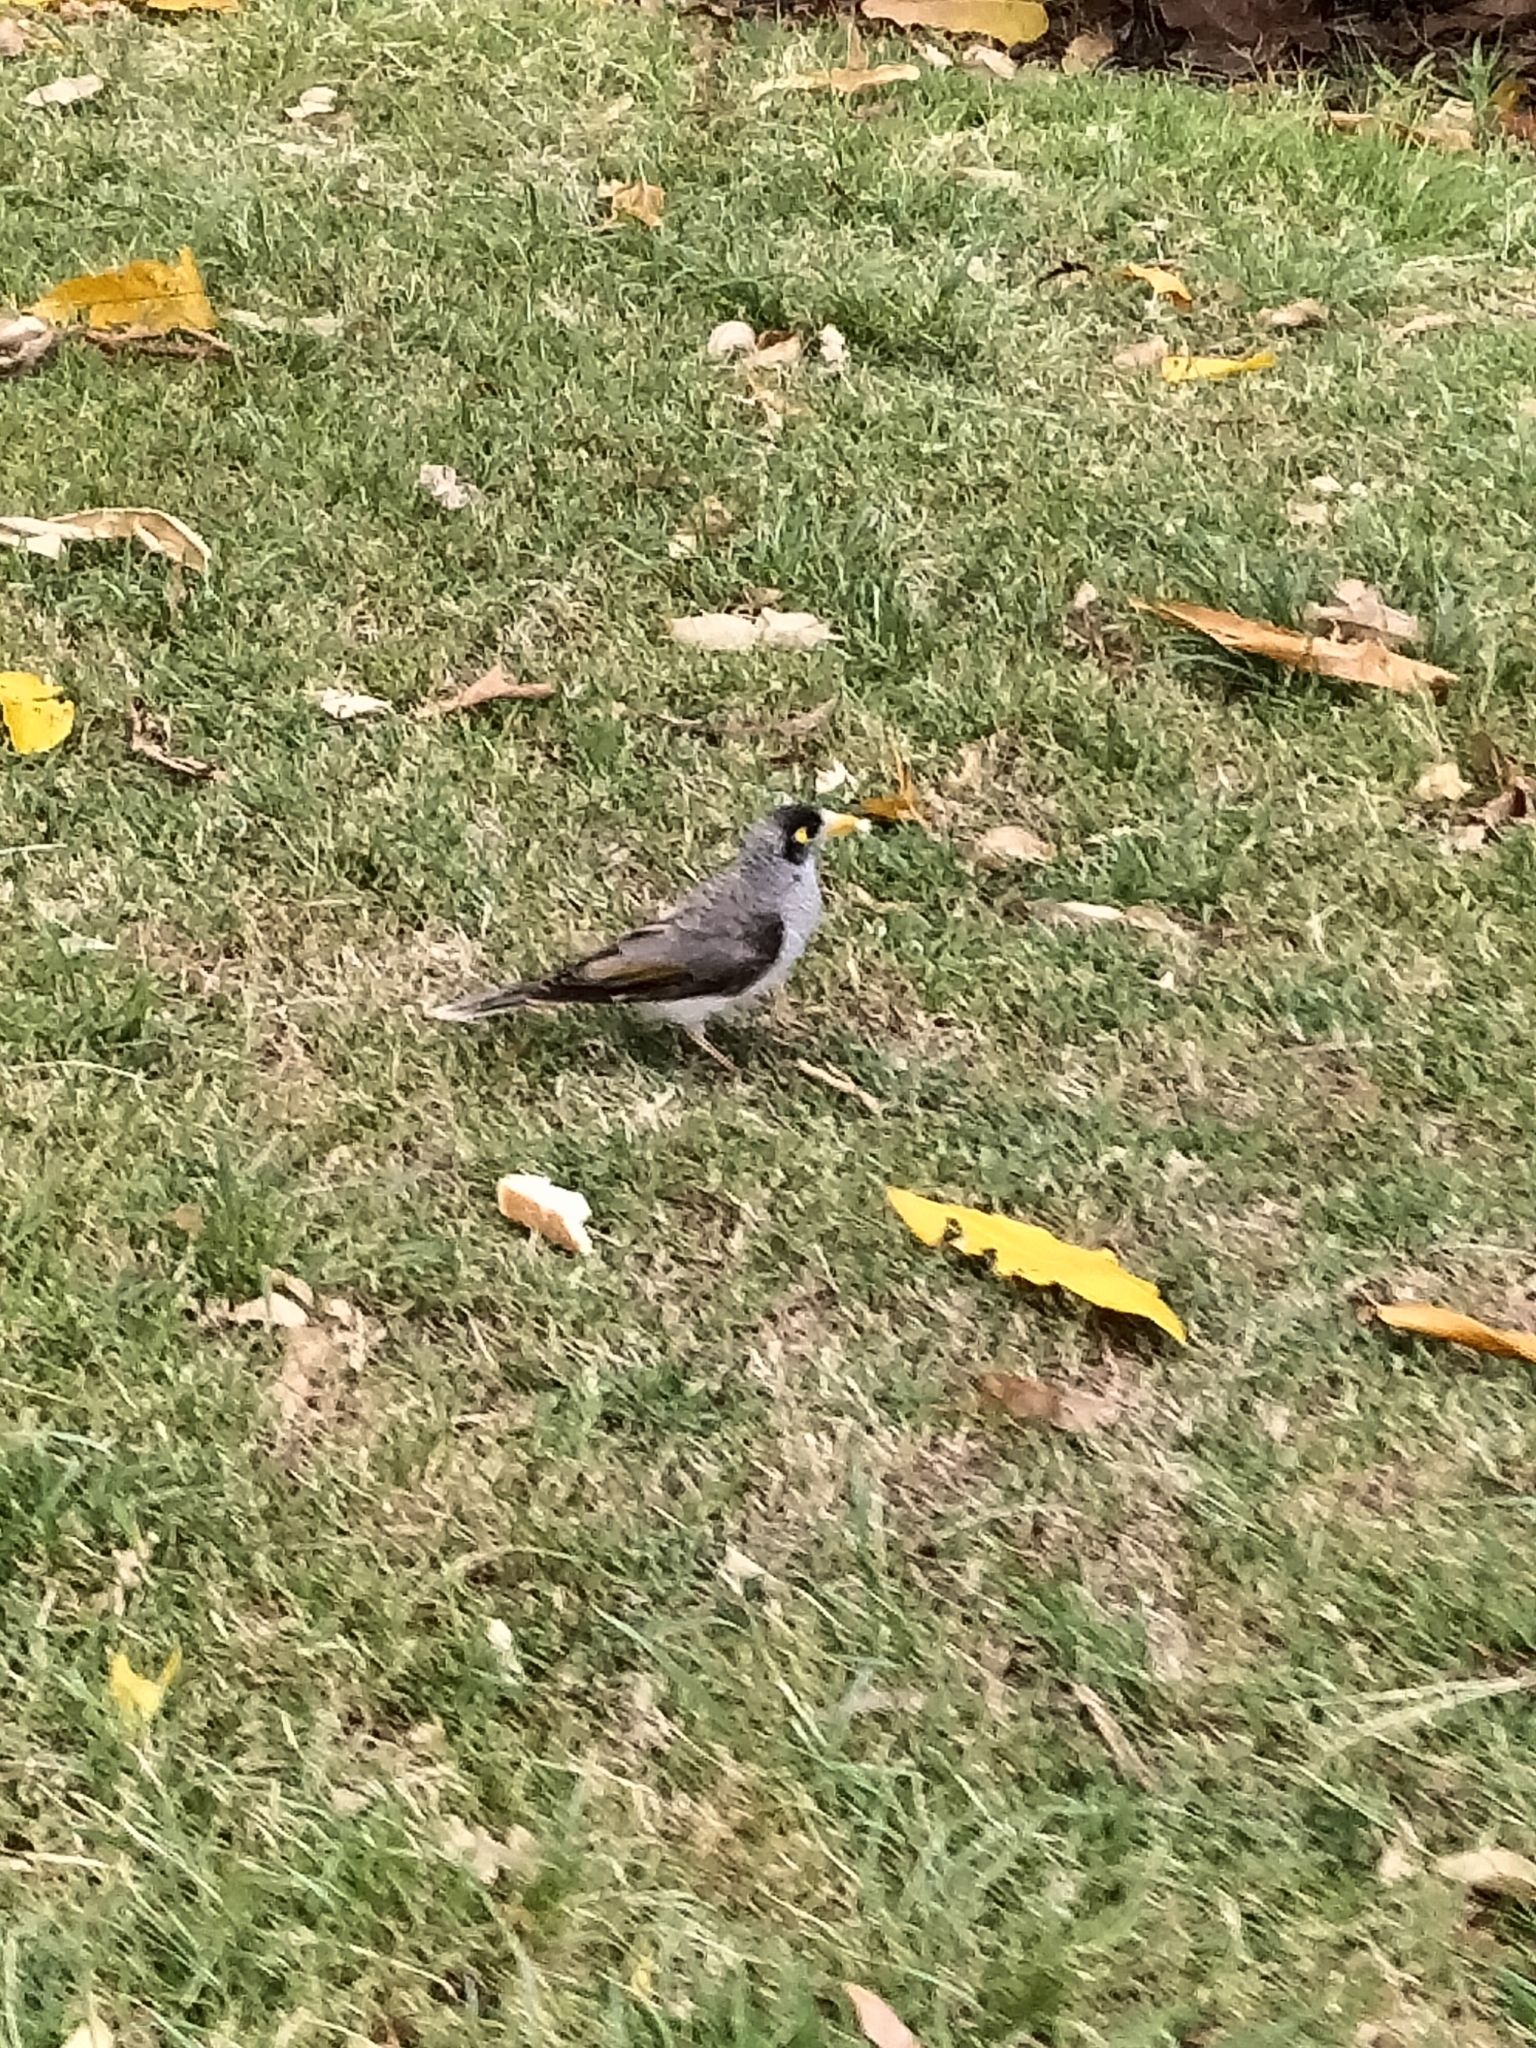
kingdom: Animalia
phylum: Chordata
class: Aves
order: Passeriformes
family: Meliphagidae
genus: Manorina
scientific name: Manorina melanocephala
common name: Noisy miner
